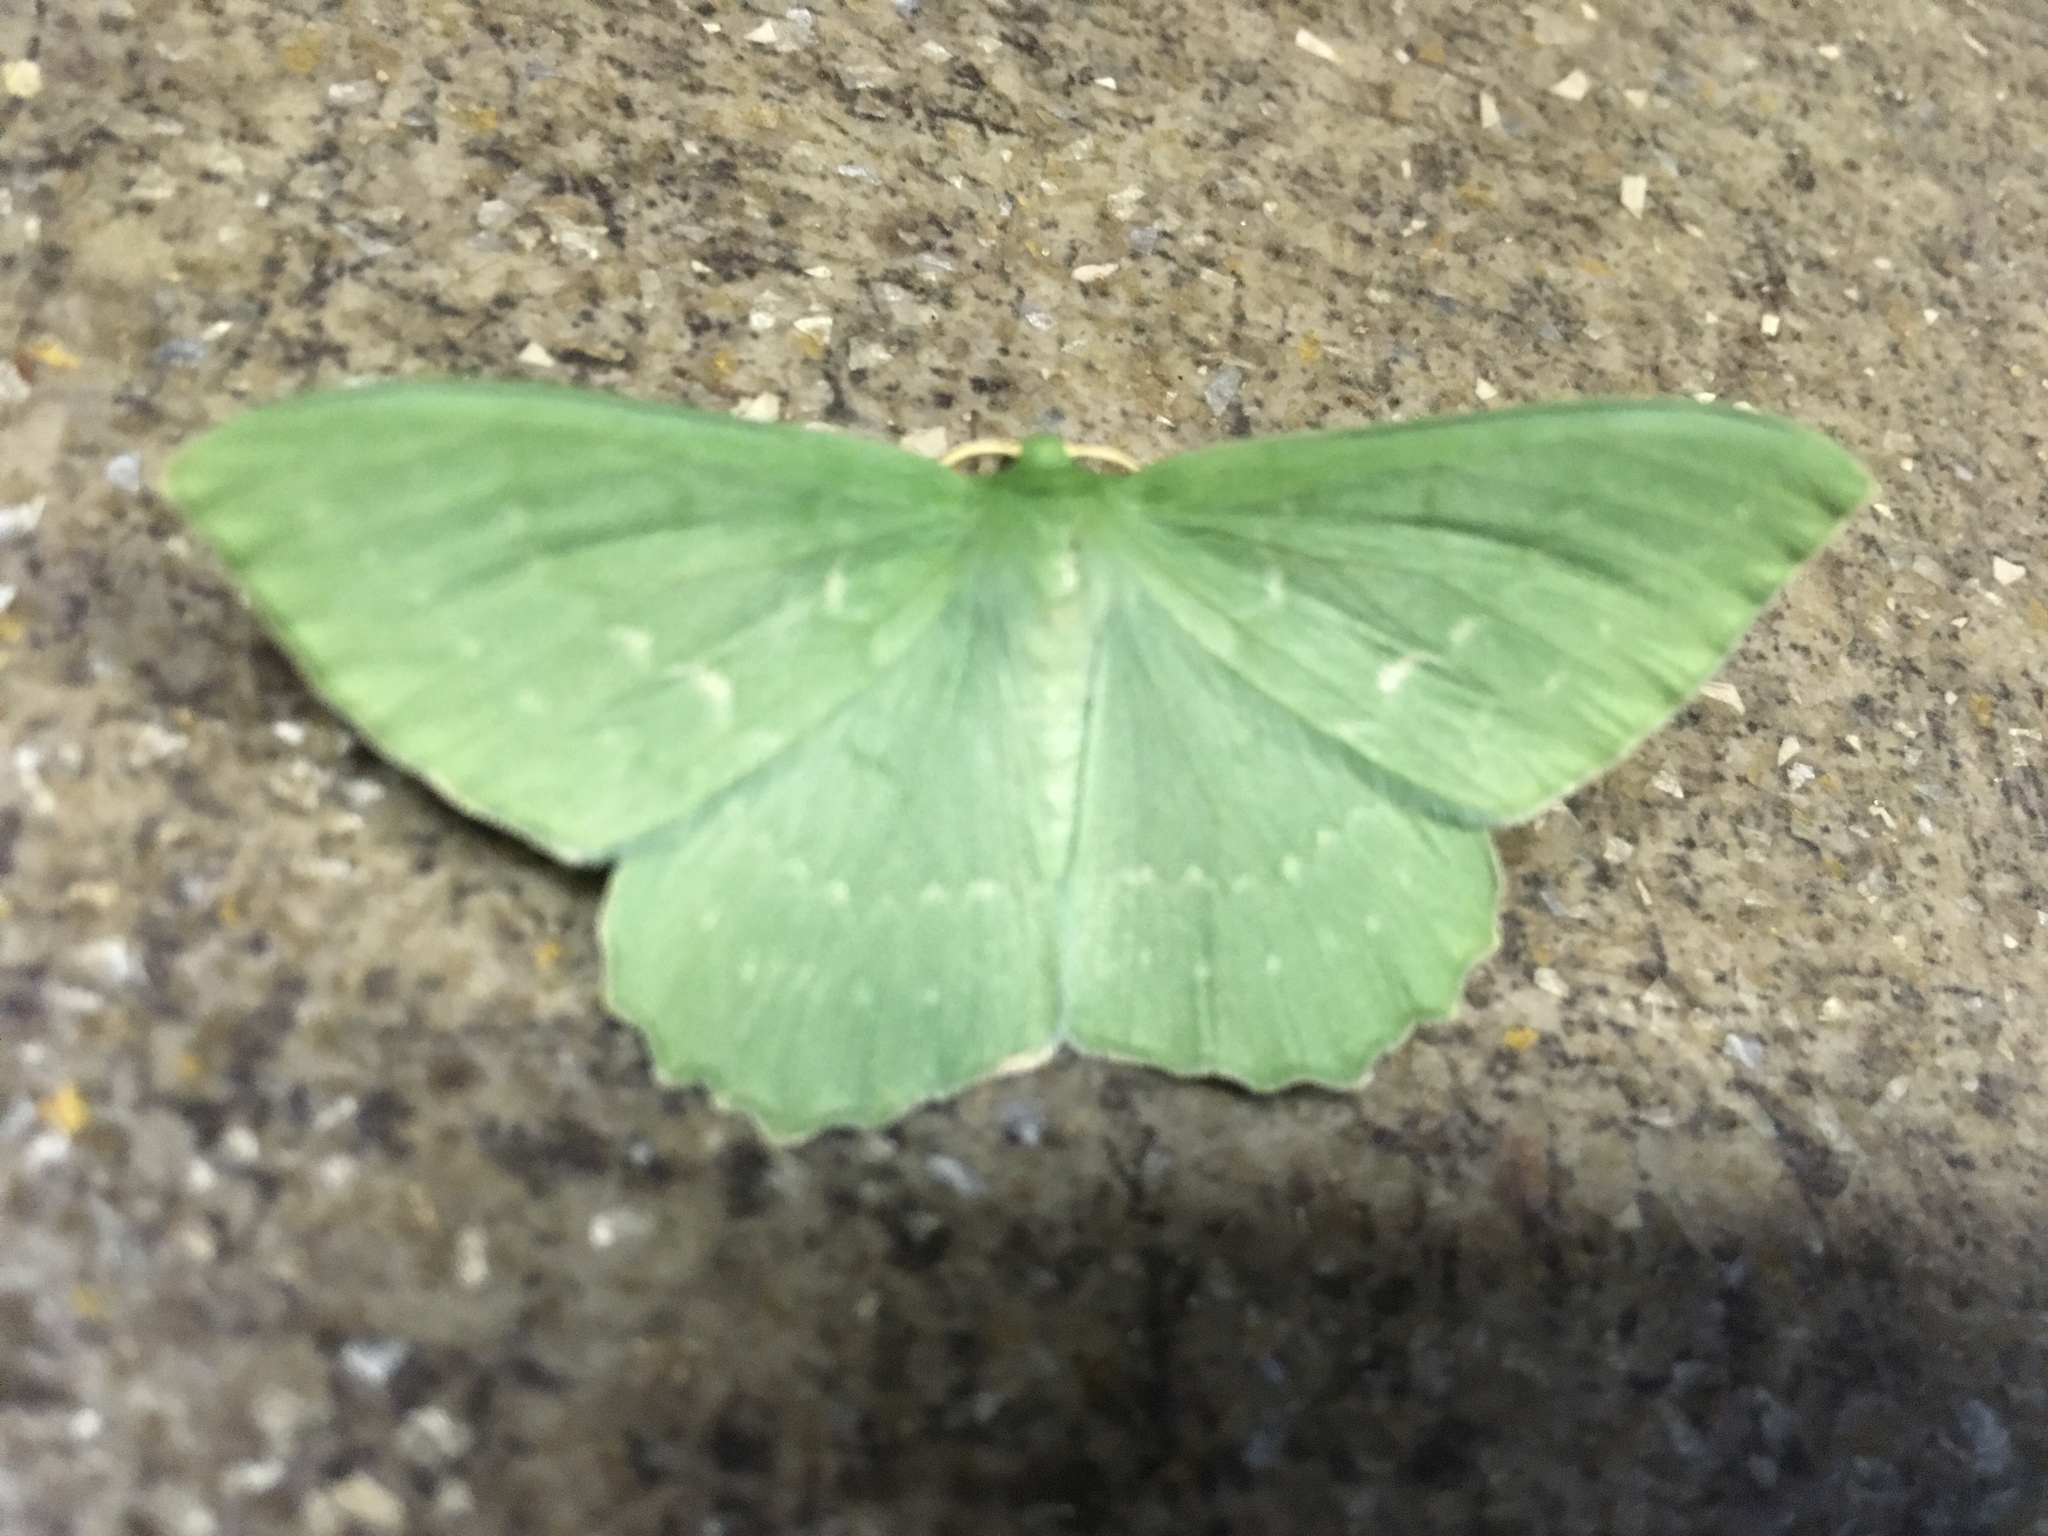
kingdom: Animalia
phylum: Arthropoda
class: Insecta
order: Lepidoptera
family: Geometridae
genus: Geometra
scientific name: Geometra papilionaria
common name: Large emerald
